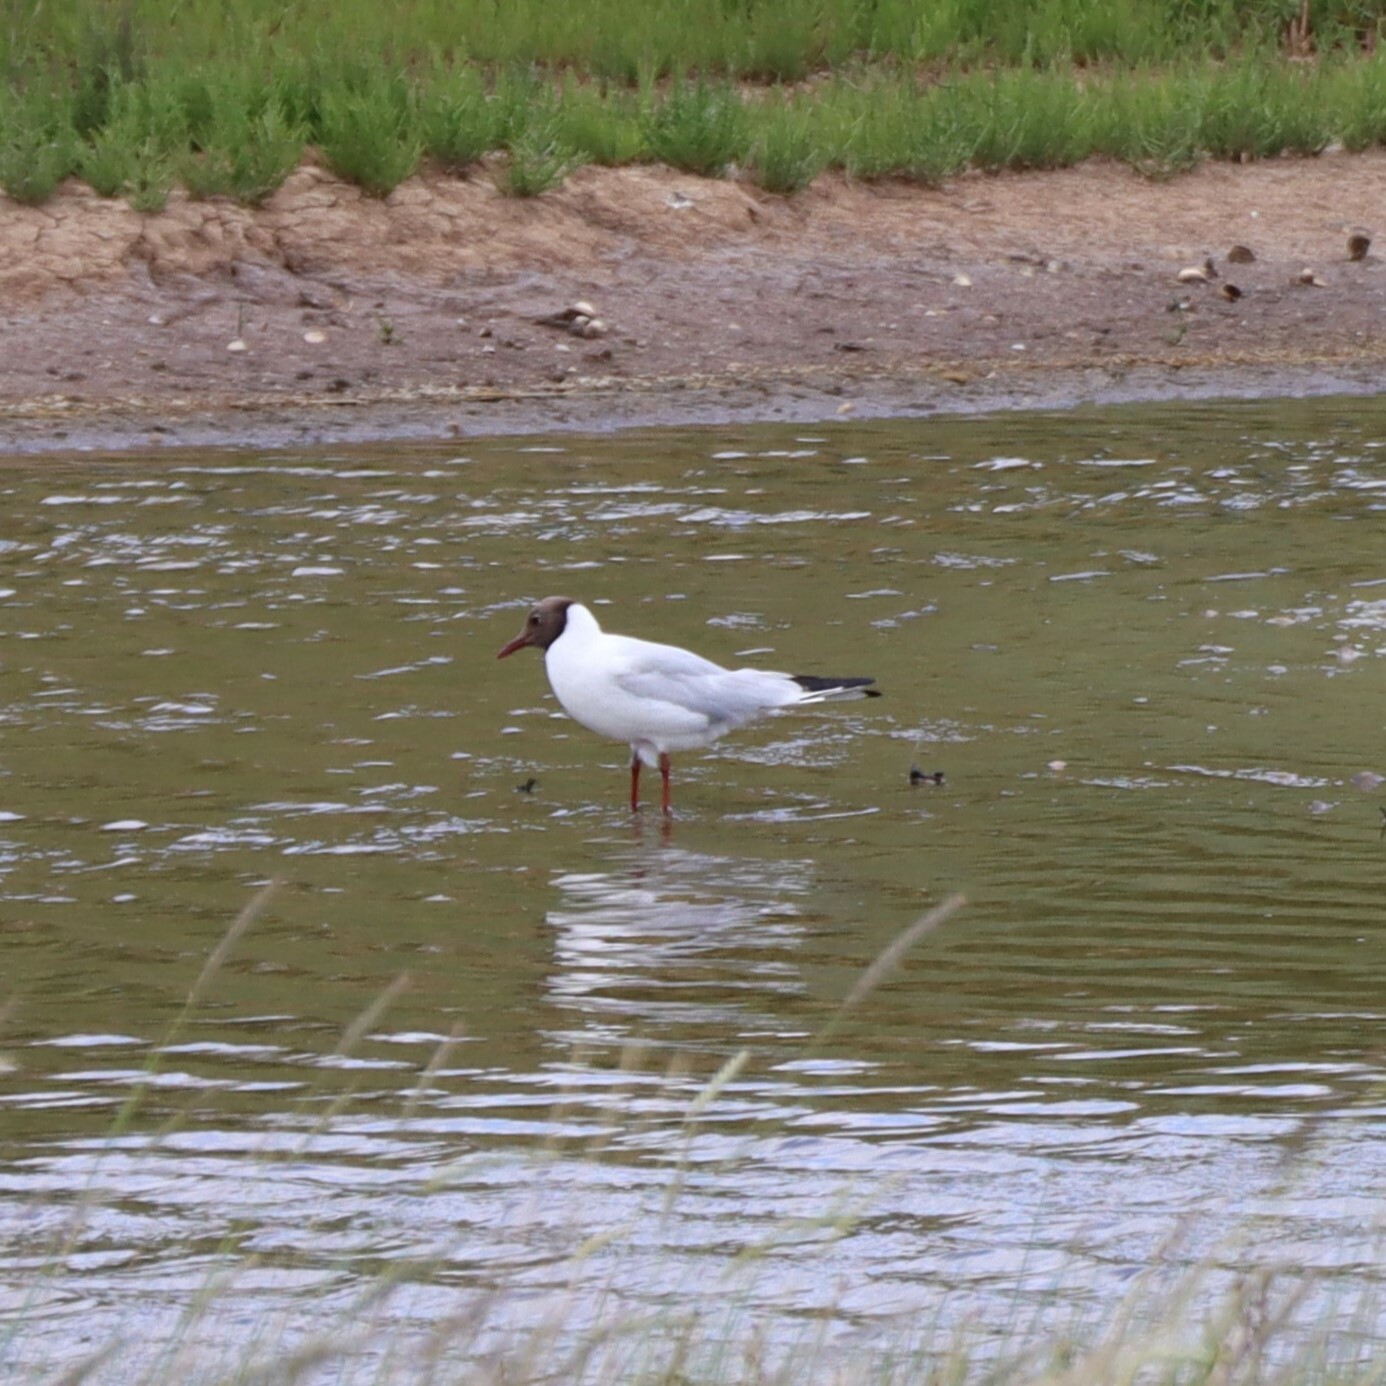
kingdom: Animalia
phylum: Chordata
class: Aves
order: Charadriiformes
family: Laridae
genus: Chroicocephalus
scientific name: Chroicocephalus ridibundus
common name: Black-headed gull
